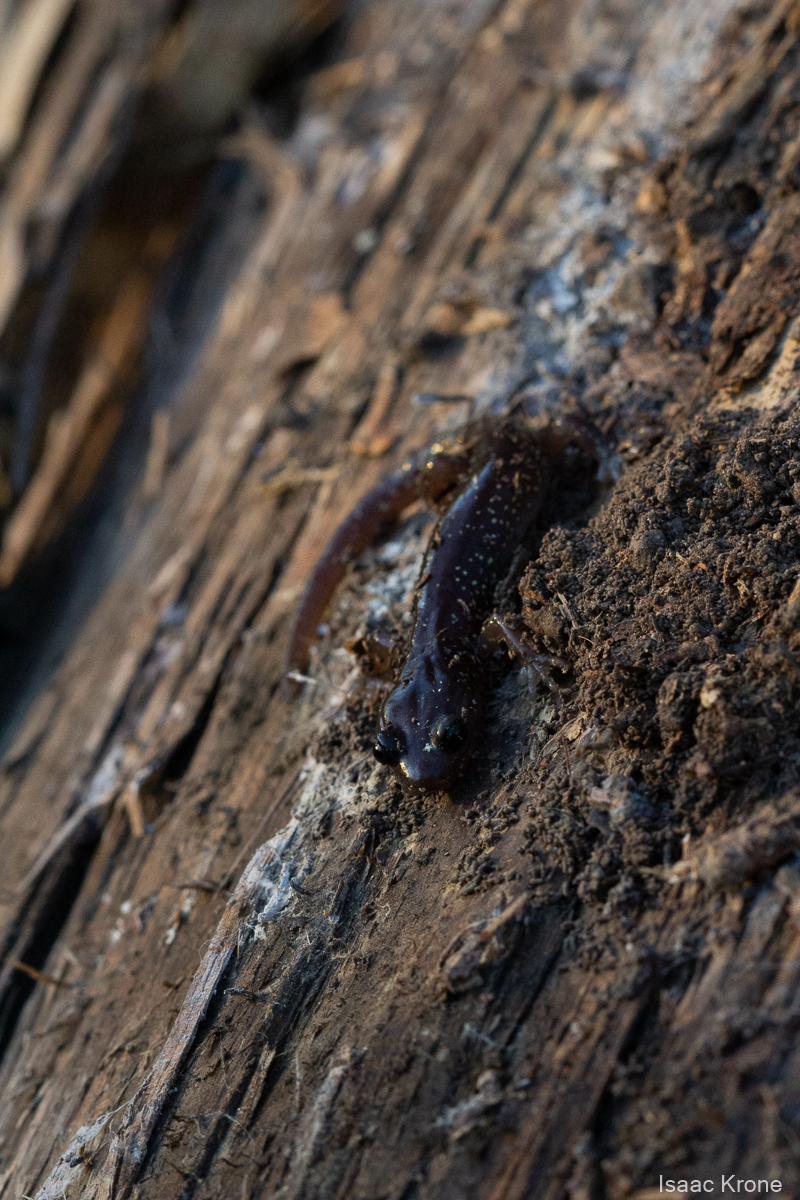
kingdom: Animalia
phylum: Chordata
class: Amphibia
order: Caudata
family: Plethodontidae
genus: Aneides
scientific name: Aneides lugubris
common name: Arboreal salamander
